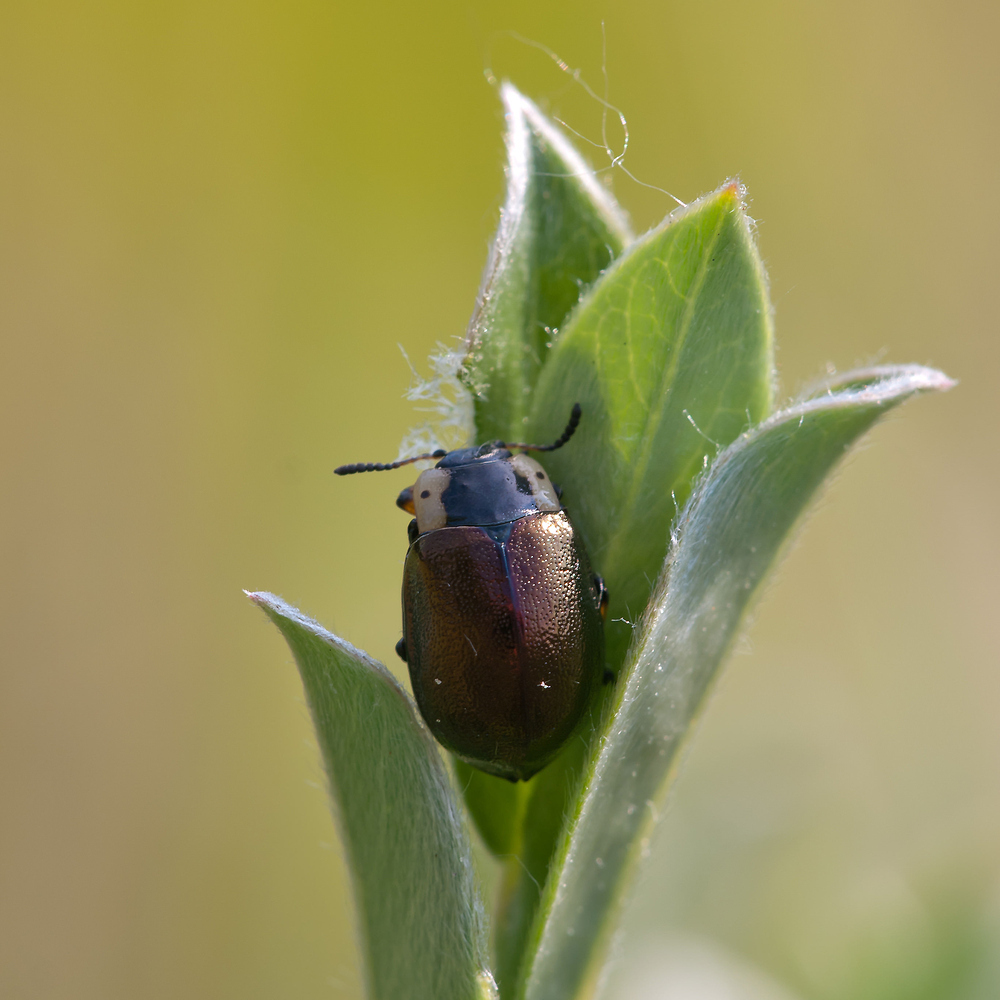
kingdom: Animalia
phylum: Arthropoda
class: Insecta
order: Coleoptera
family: Chrysomelidae
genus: Chrysomela
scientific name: Chrysomela collaris
